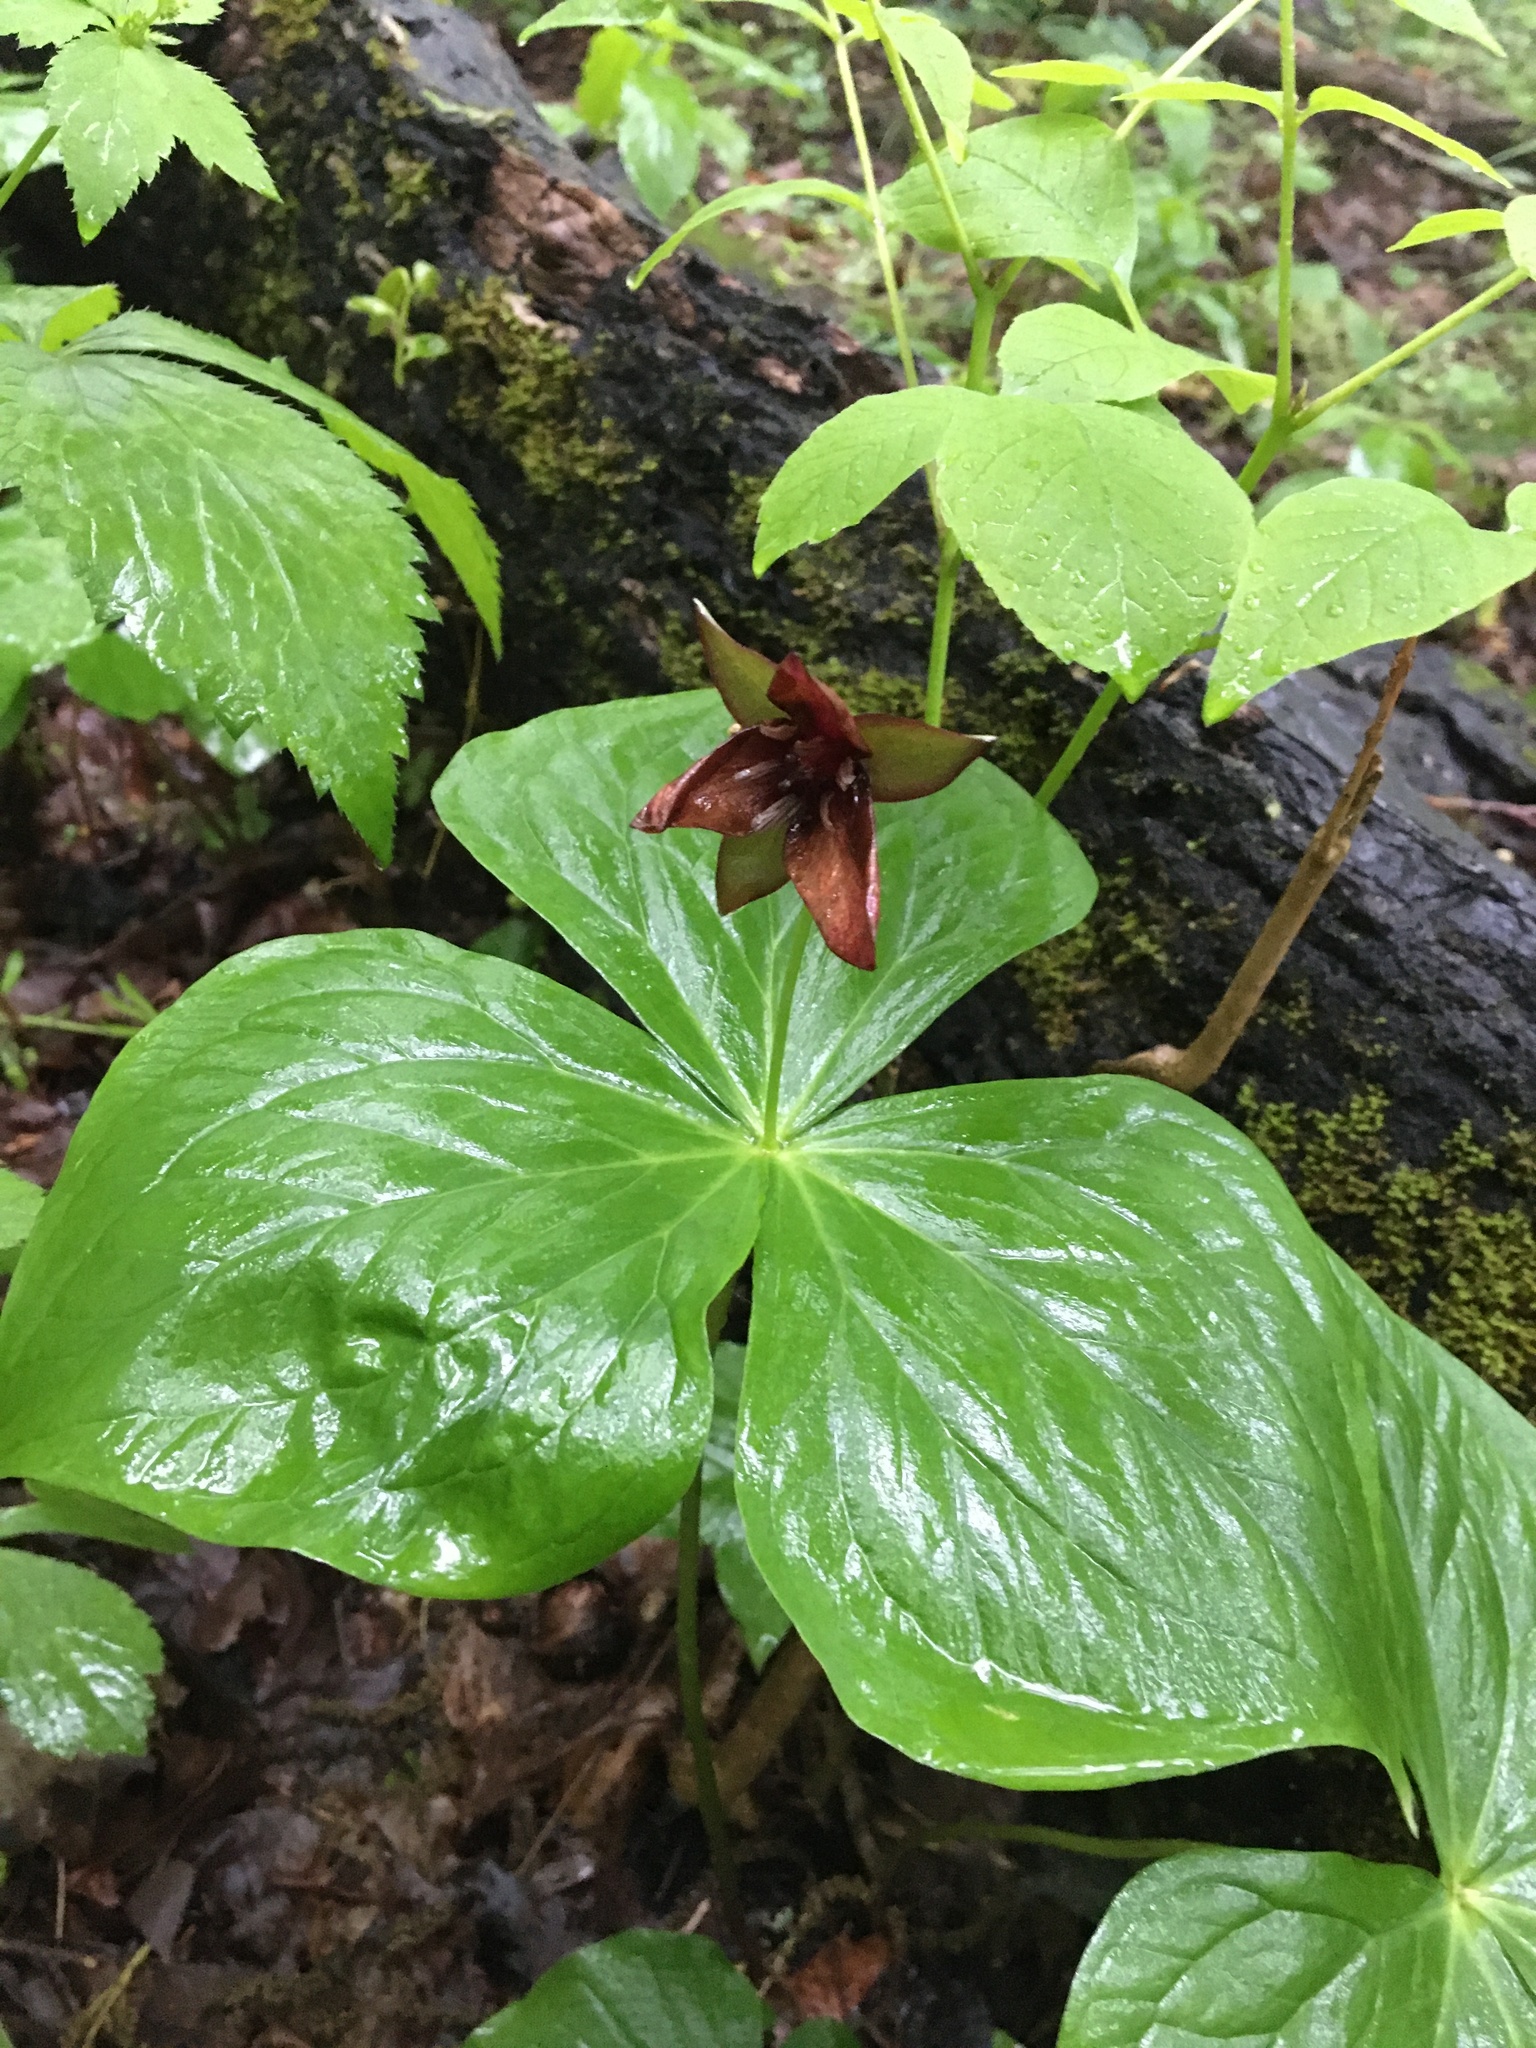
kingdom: Plantae
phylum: Tracheophyta
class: Liliopsida
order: Liliales
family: Melanthiaceae
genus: Trillium
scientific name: Trillium sulcatum
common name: Barksdale trillium
